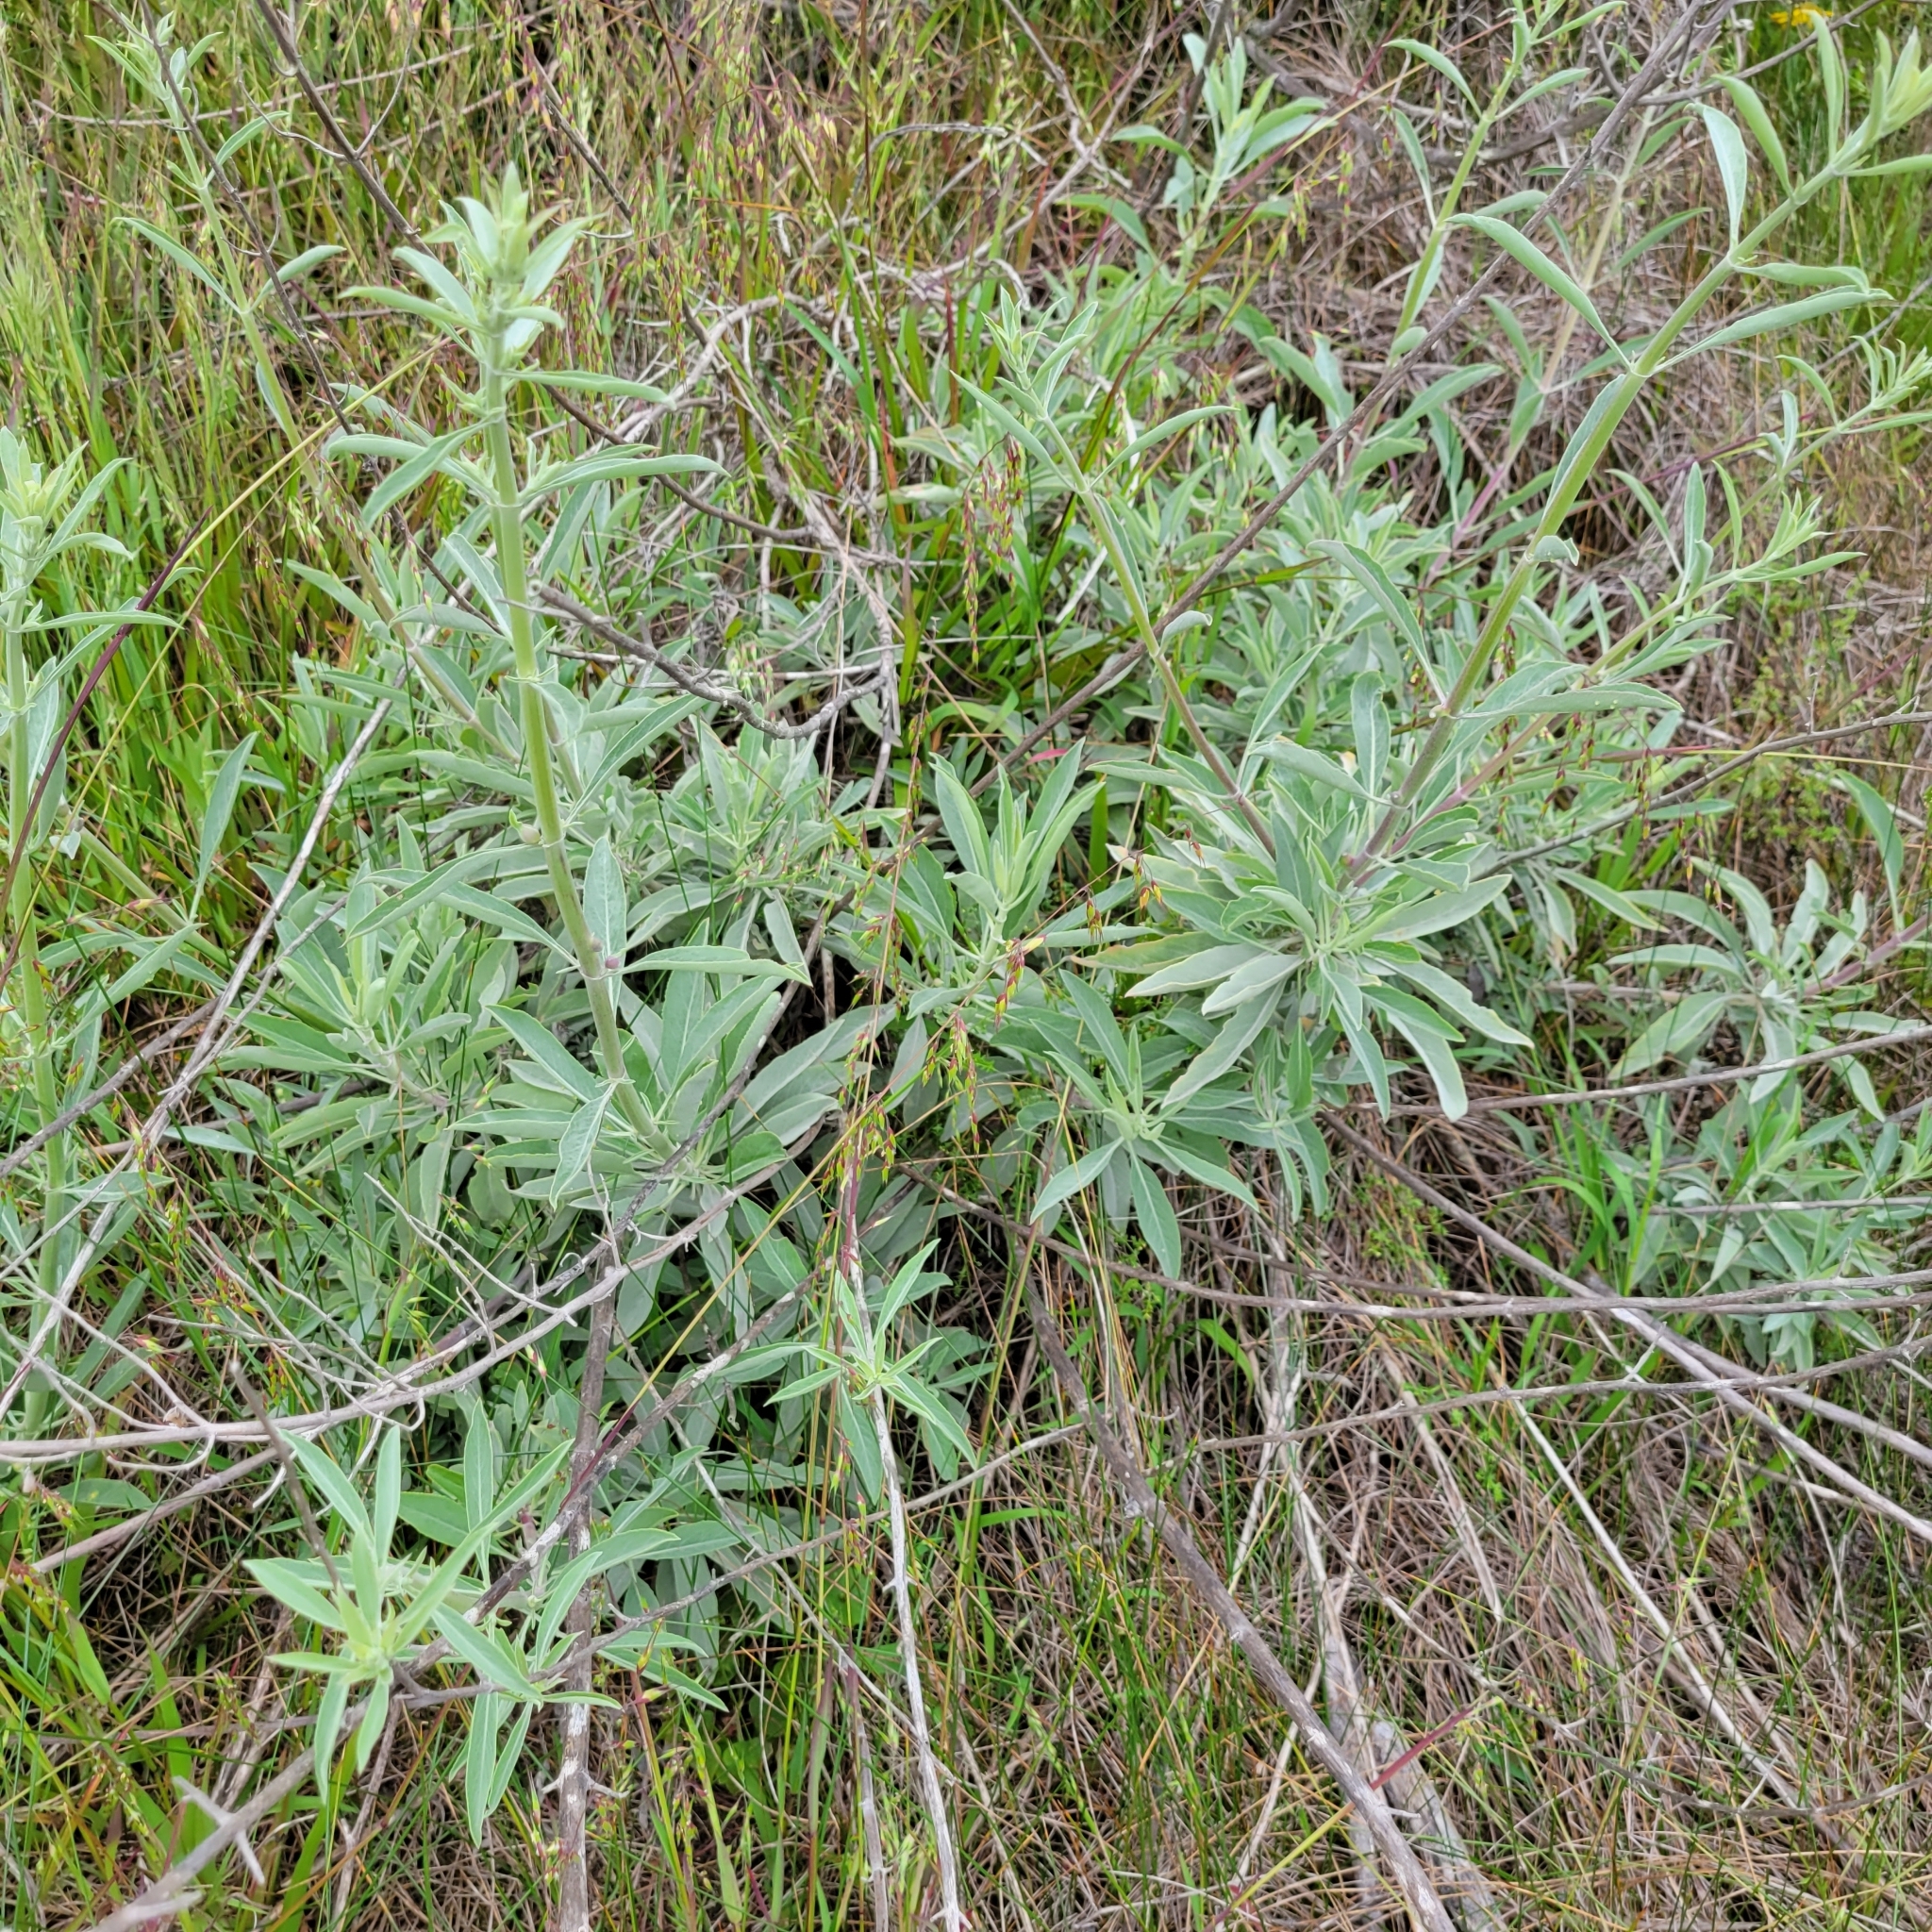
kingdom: Plantae
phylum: Tracheophyta
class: Magnoliopsida
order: Lamiales
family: Lamiaceae
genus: Salvia
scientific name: Salvia apiana
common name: White sage
